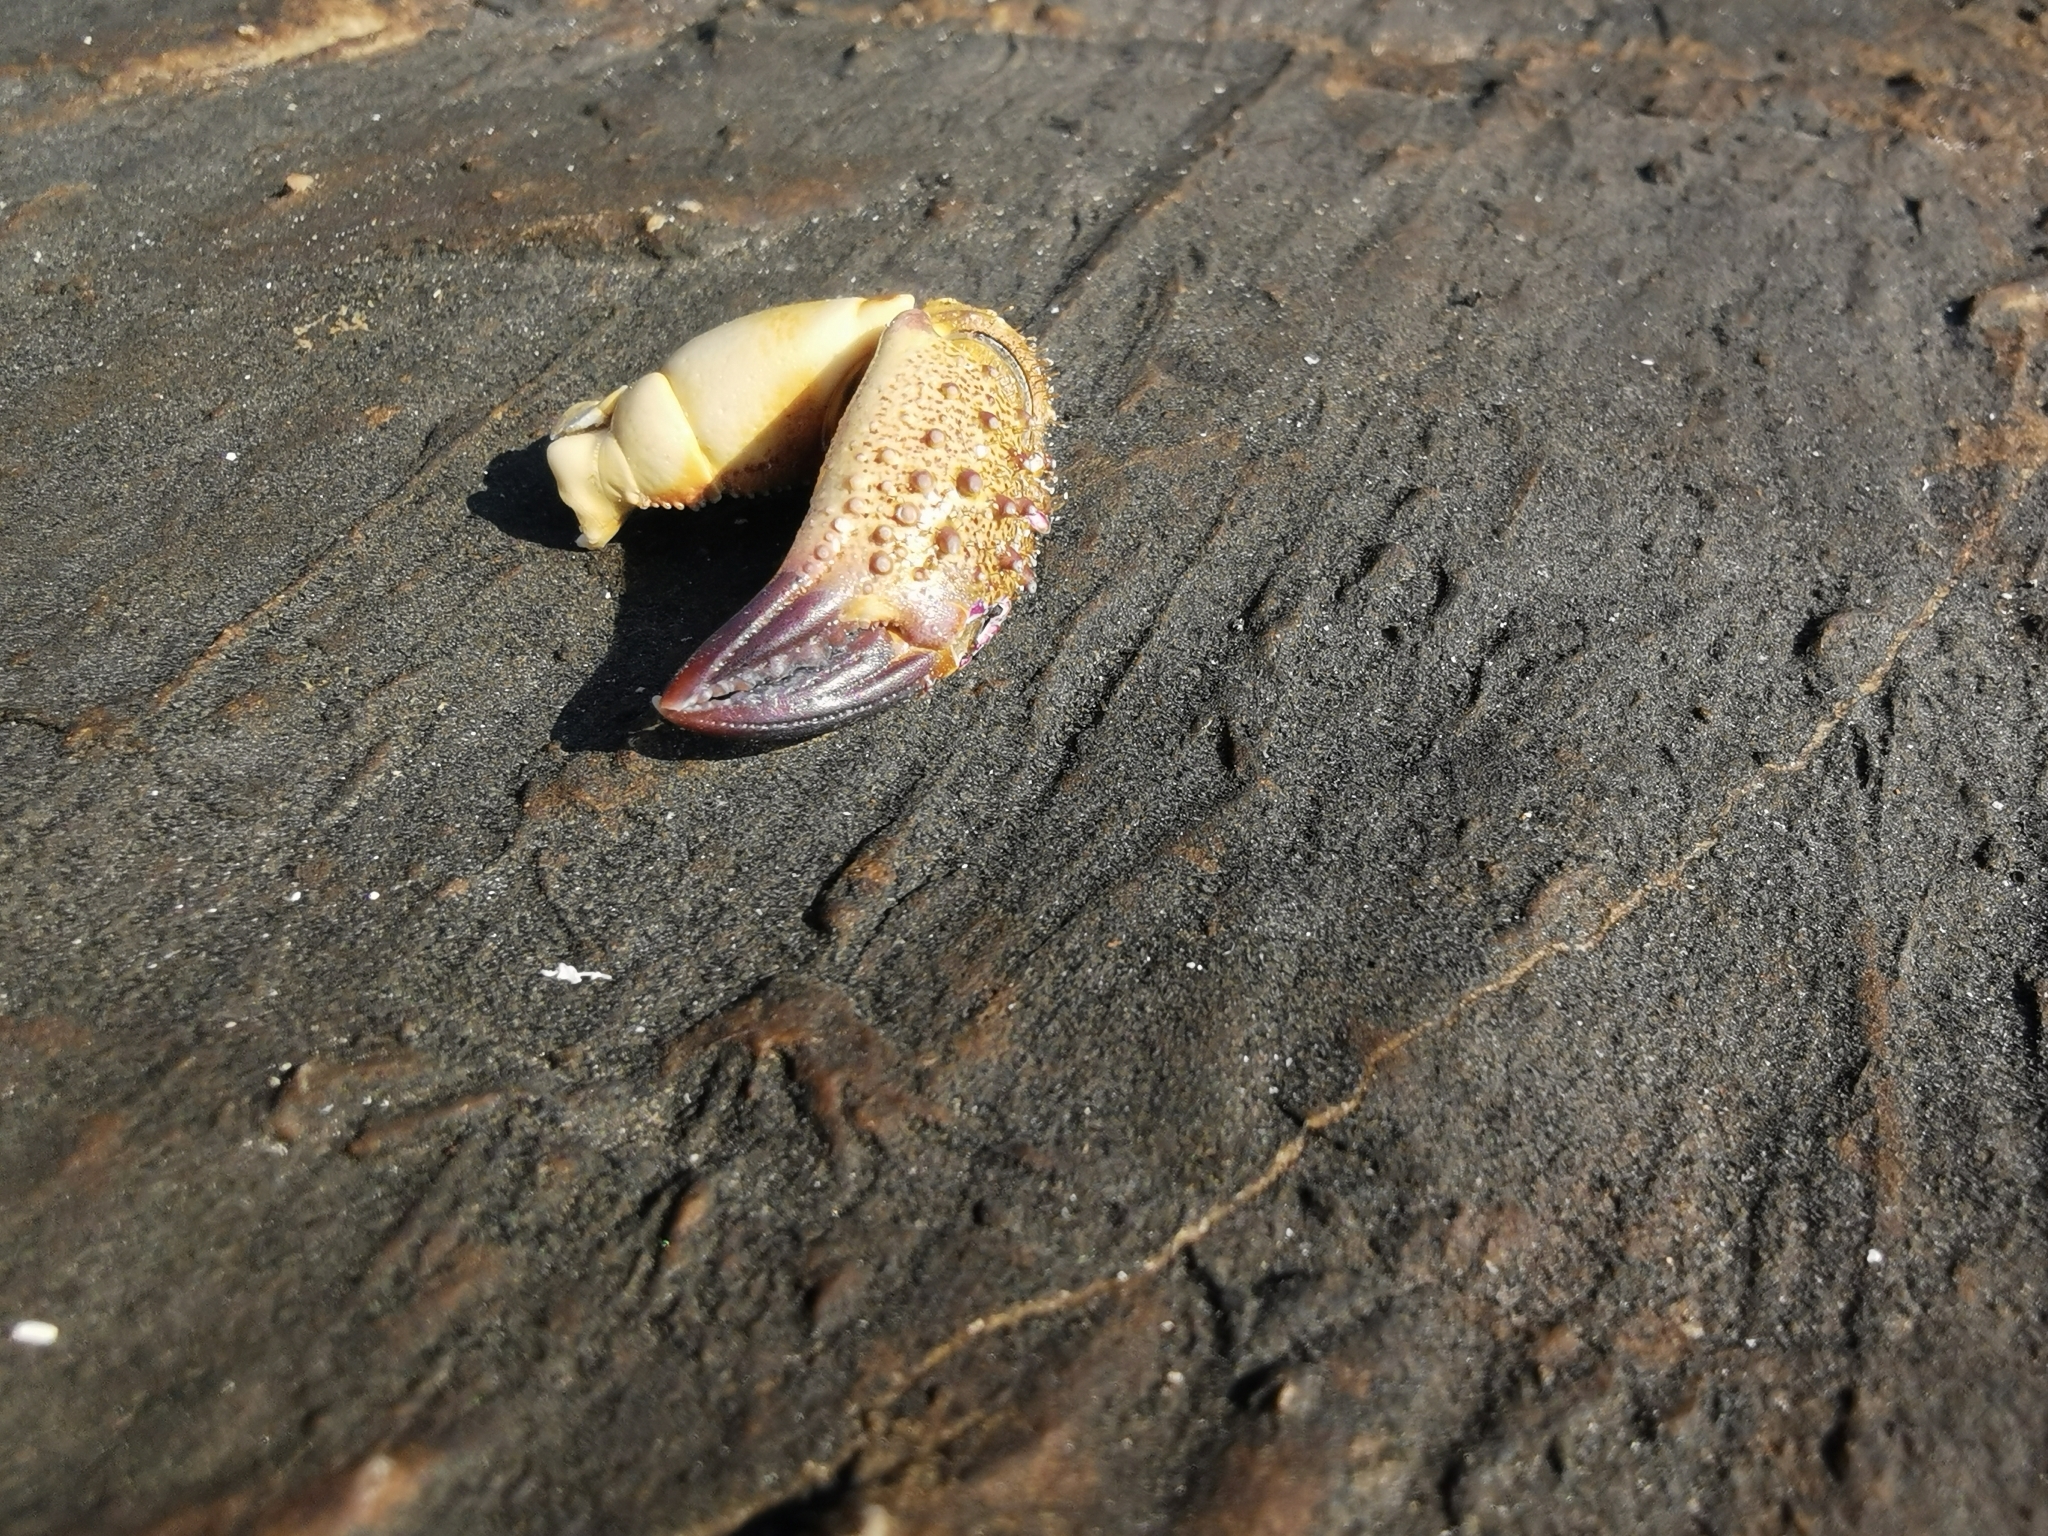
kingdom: Animalia
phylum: Arthropoda
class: Malacostraca
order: Decapoda
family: Eriphiidae
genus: Eriphia
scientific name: Eriphia verrucosa
